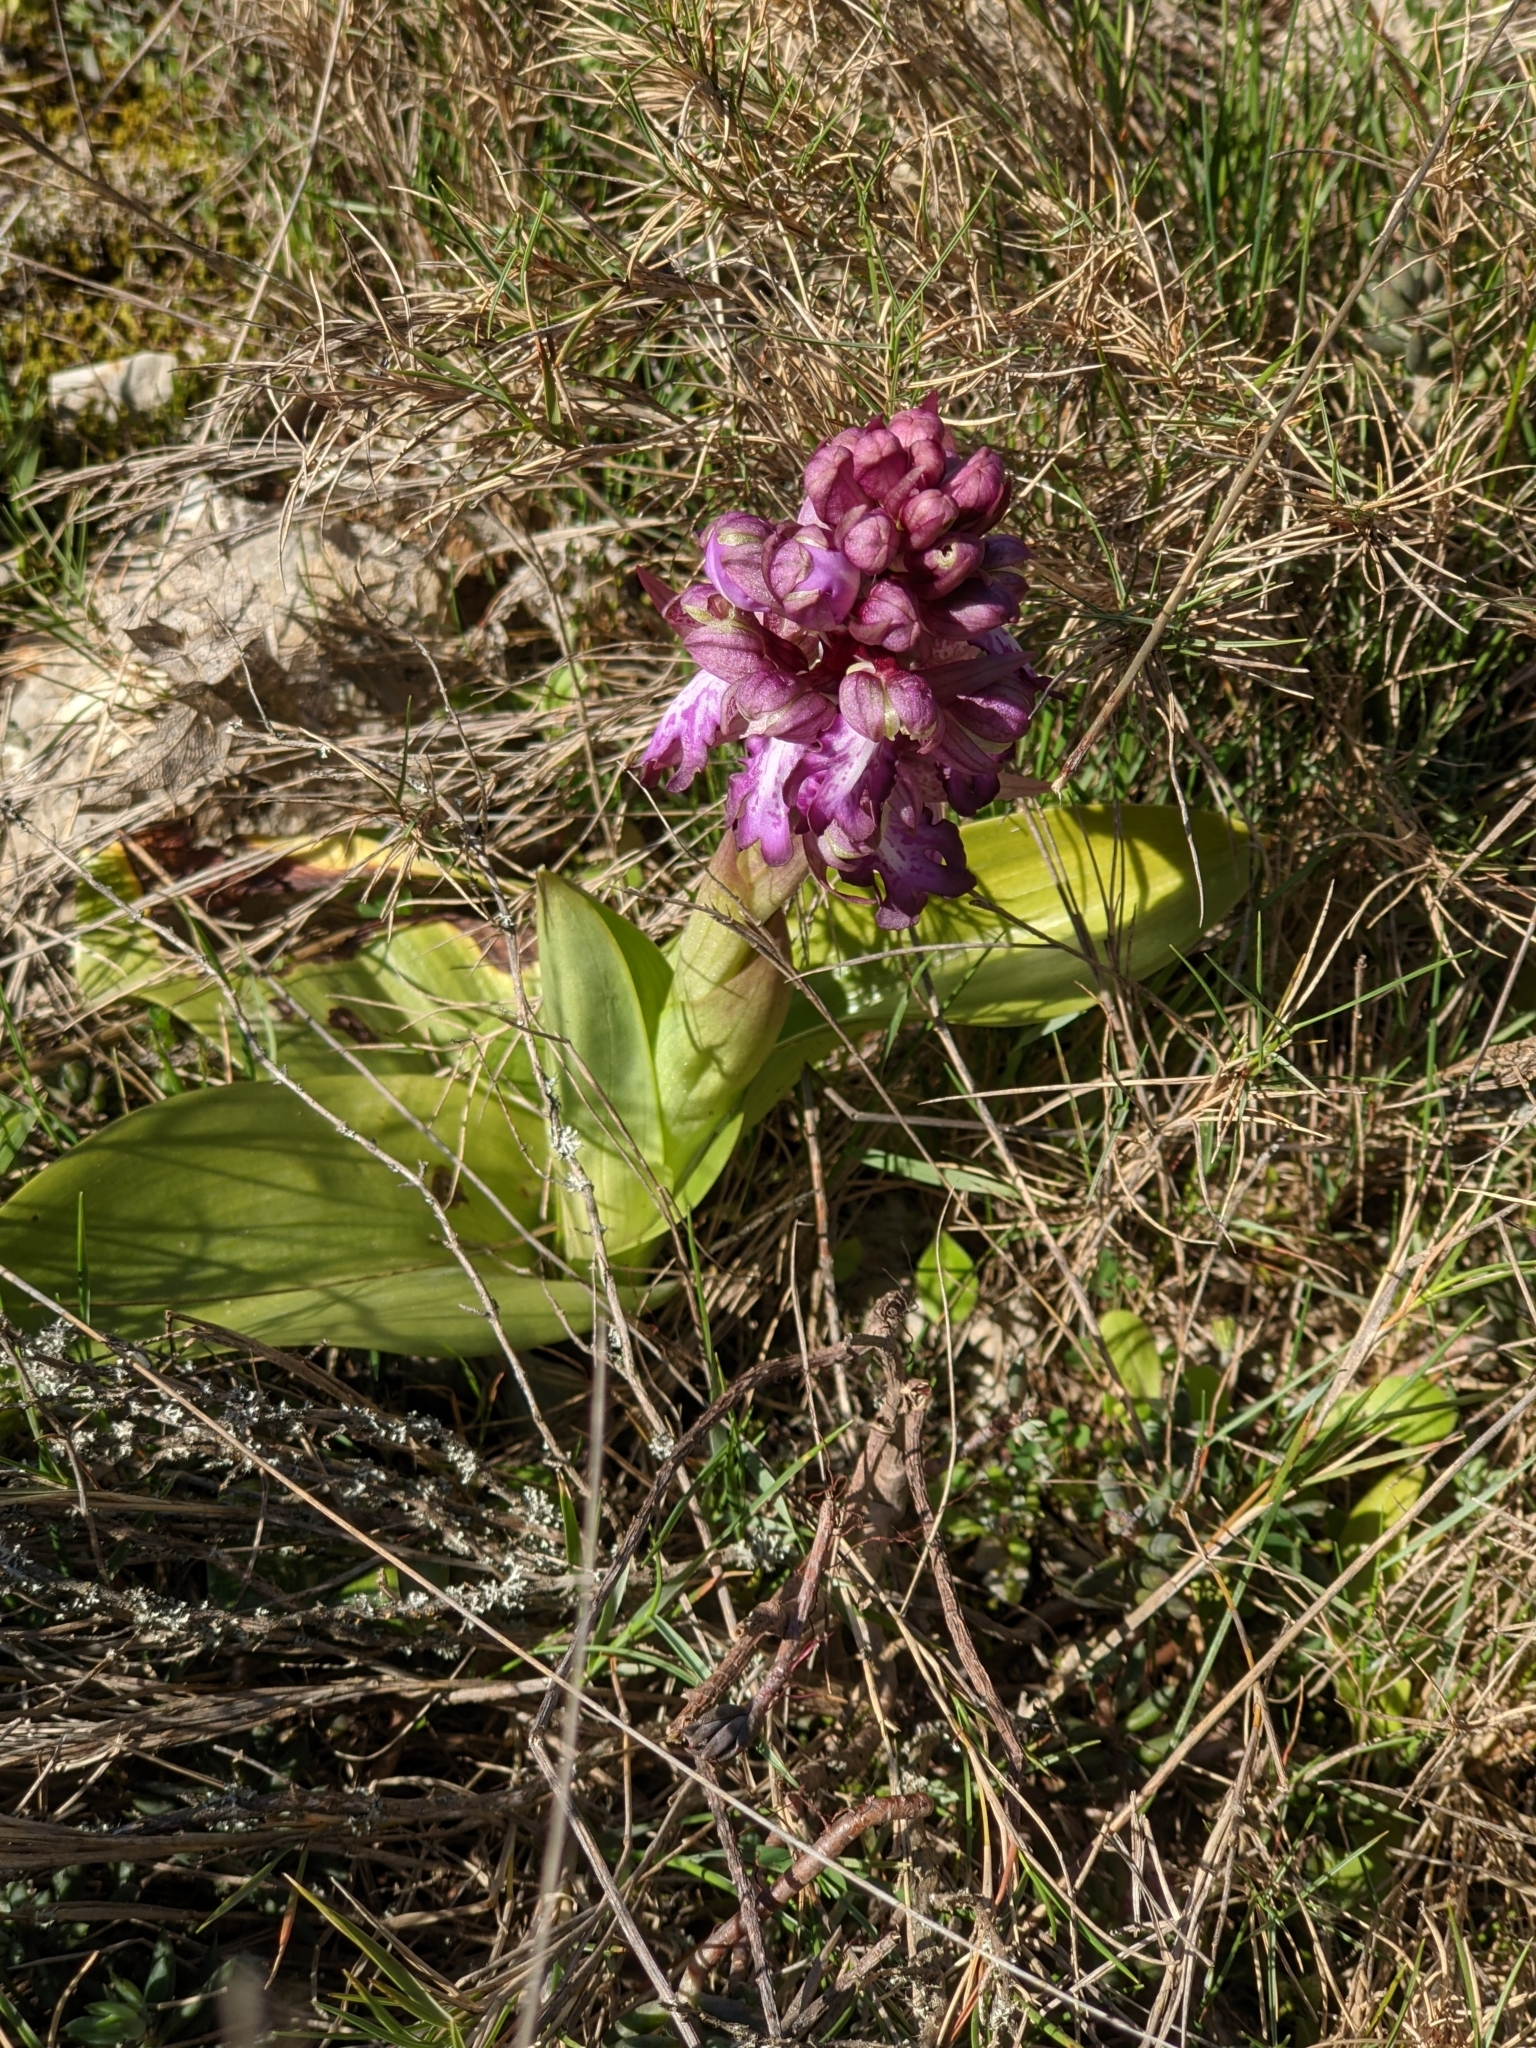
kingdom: Plantae
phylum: Tracheophyta
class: Liliopsida
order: Asparagales
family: Orchidaceae
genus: Himantoglossum
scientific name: Himantoglossum robertianum
